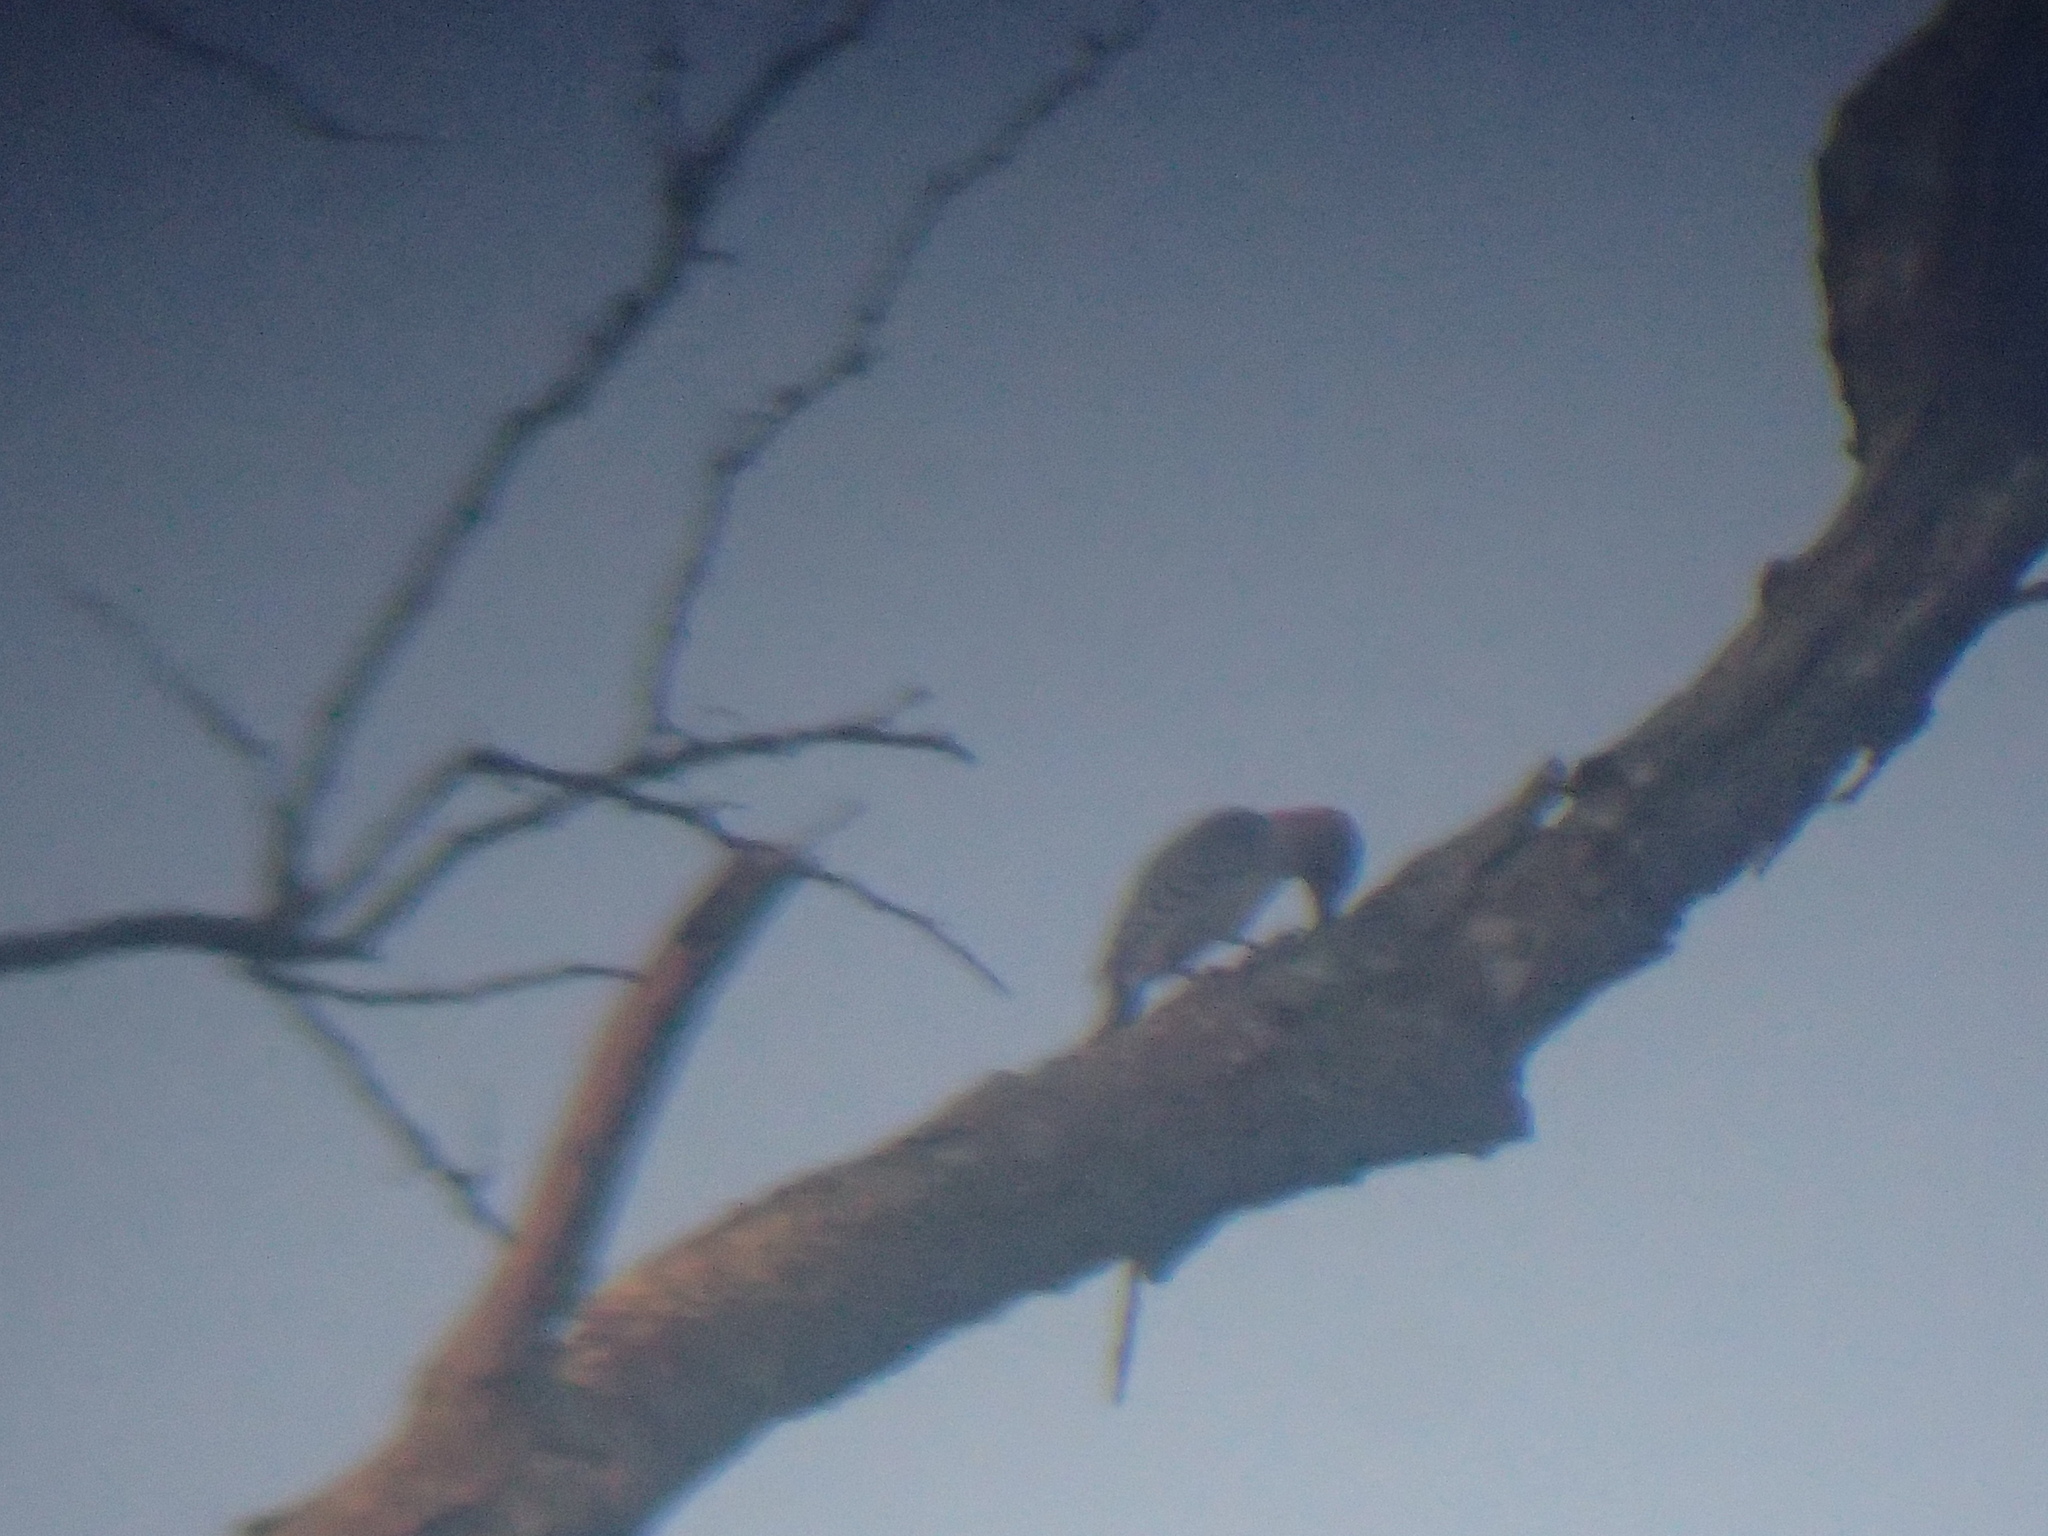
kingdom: Animalia
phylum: Chordata
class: Aves
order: Piciformes
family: Picidae
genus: Melanerpes
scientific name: Melanerpes carolinus
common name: Red-bellied woodpecker
